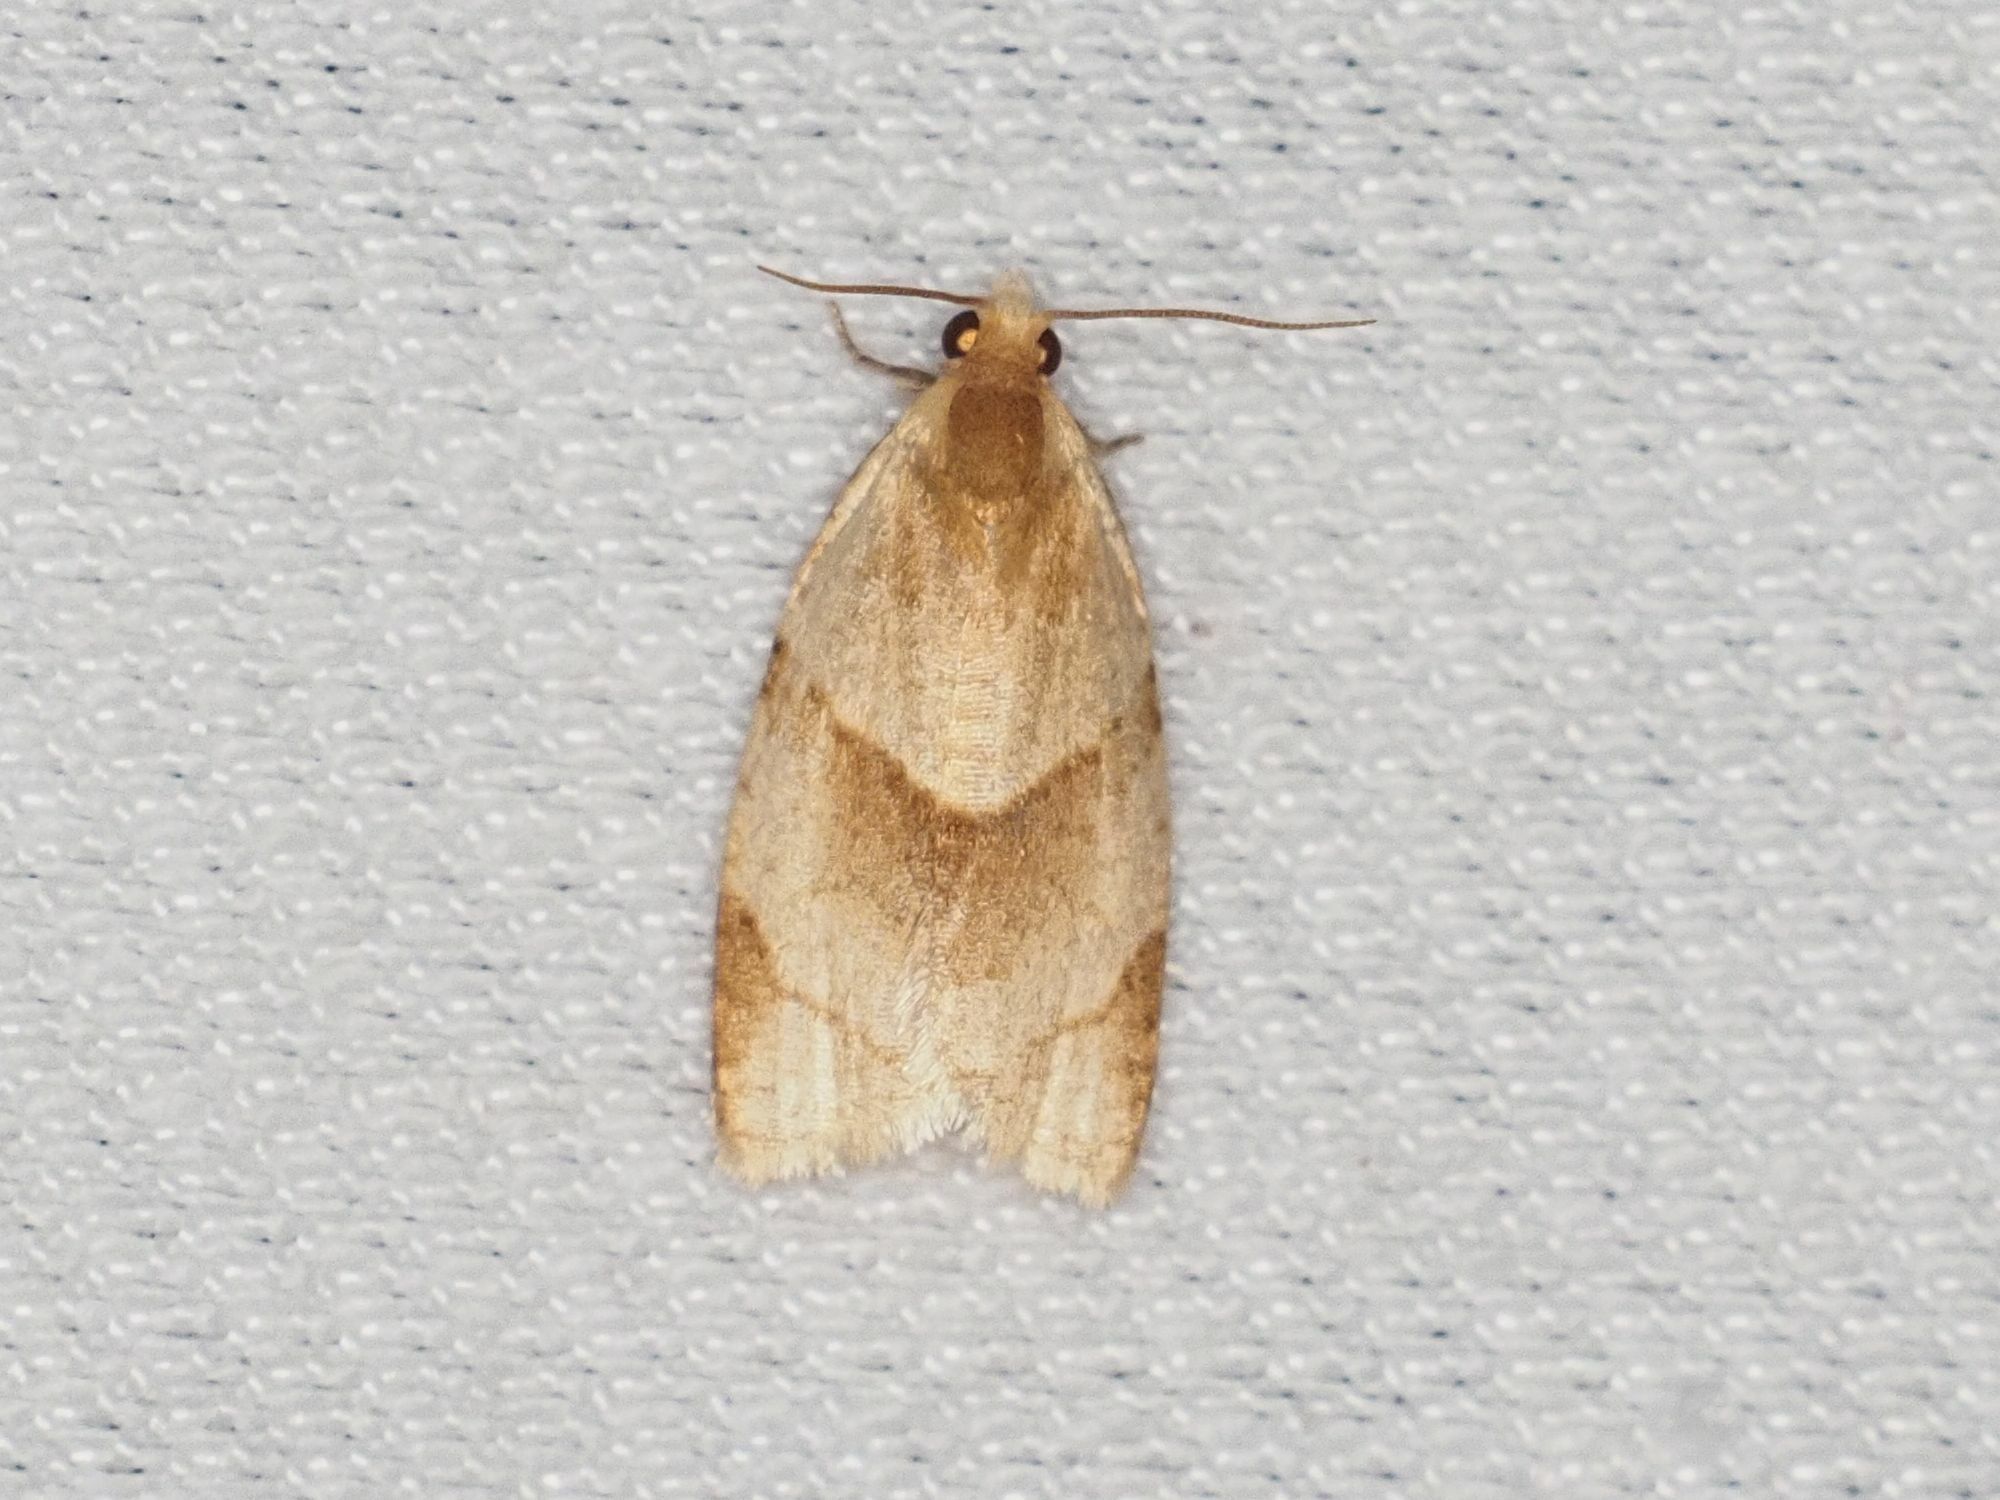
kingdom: Animalia
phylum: Arthropoda
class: Insecta
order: Lepidoptera
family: Tortricidae
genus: Clepsis
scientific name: Clepsis rurinana
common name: Pale twist
